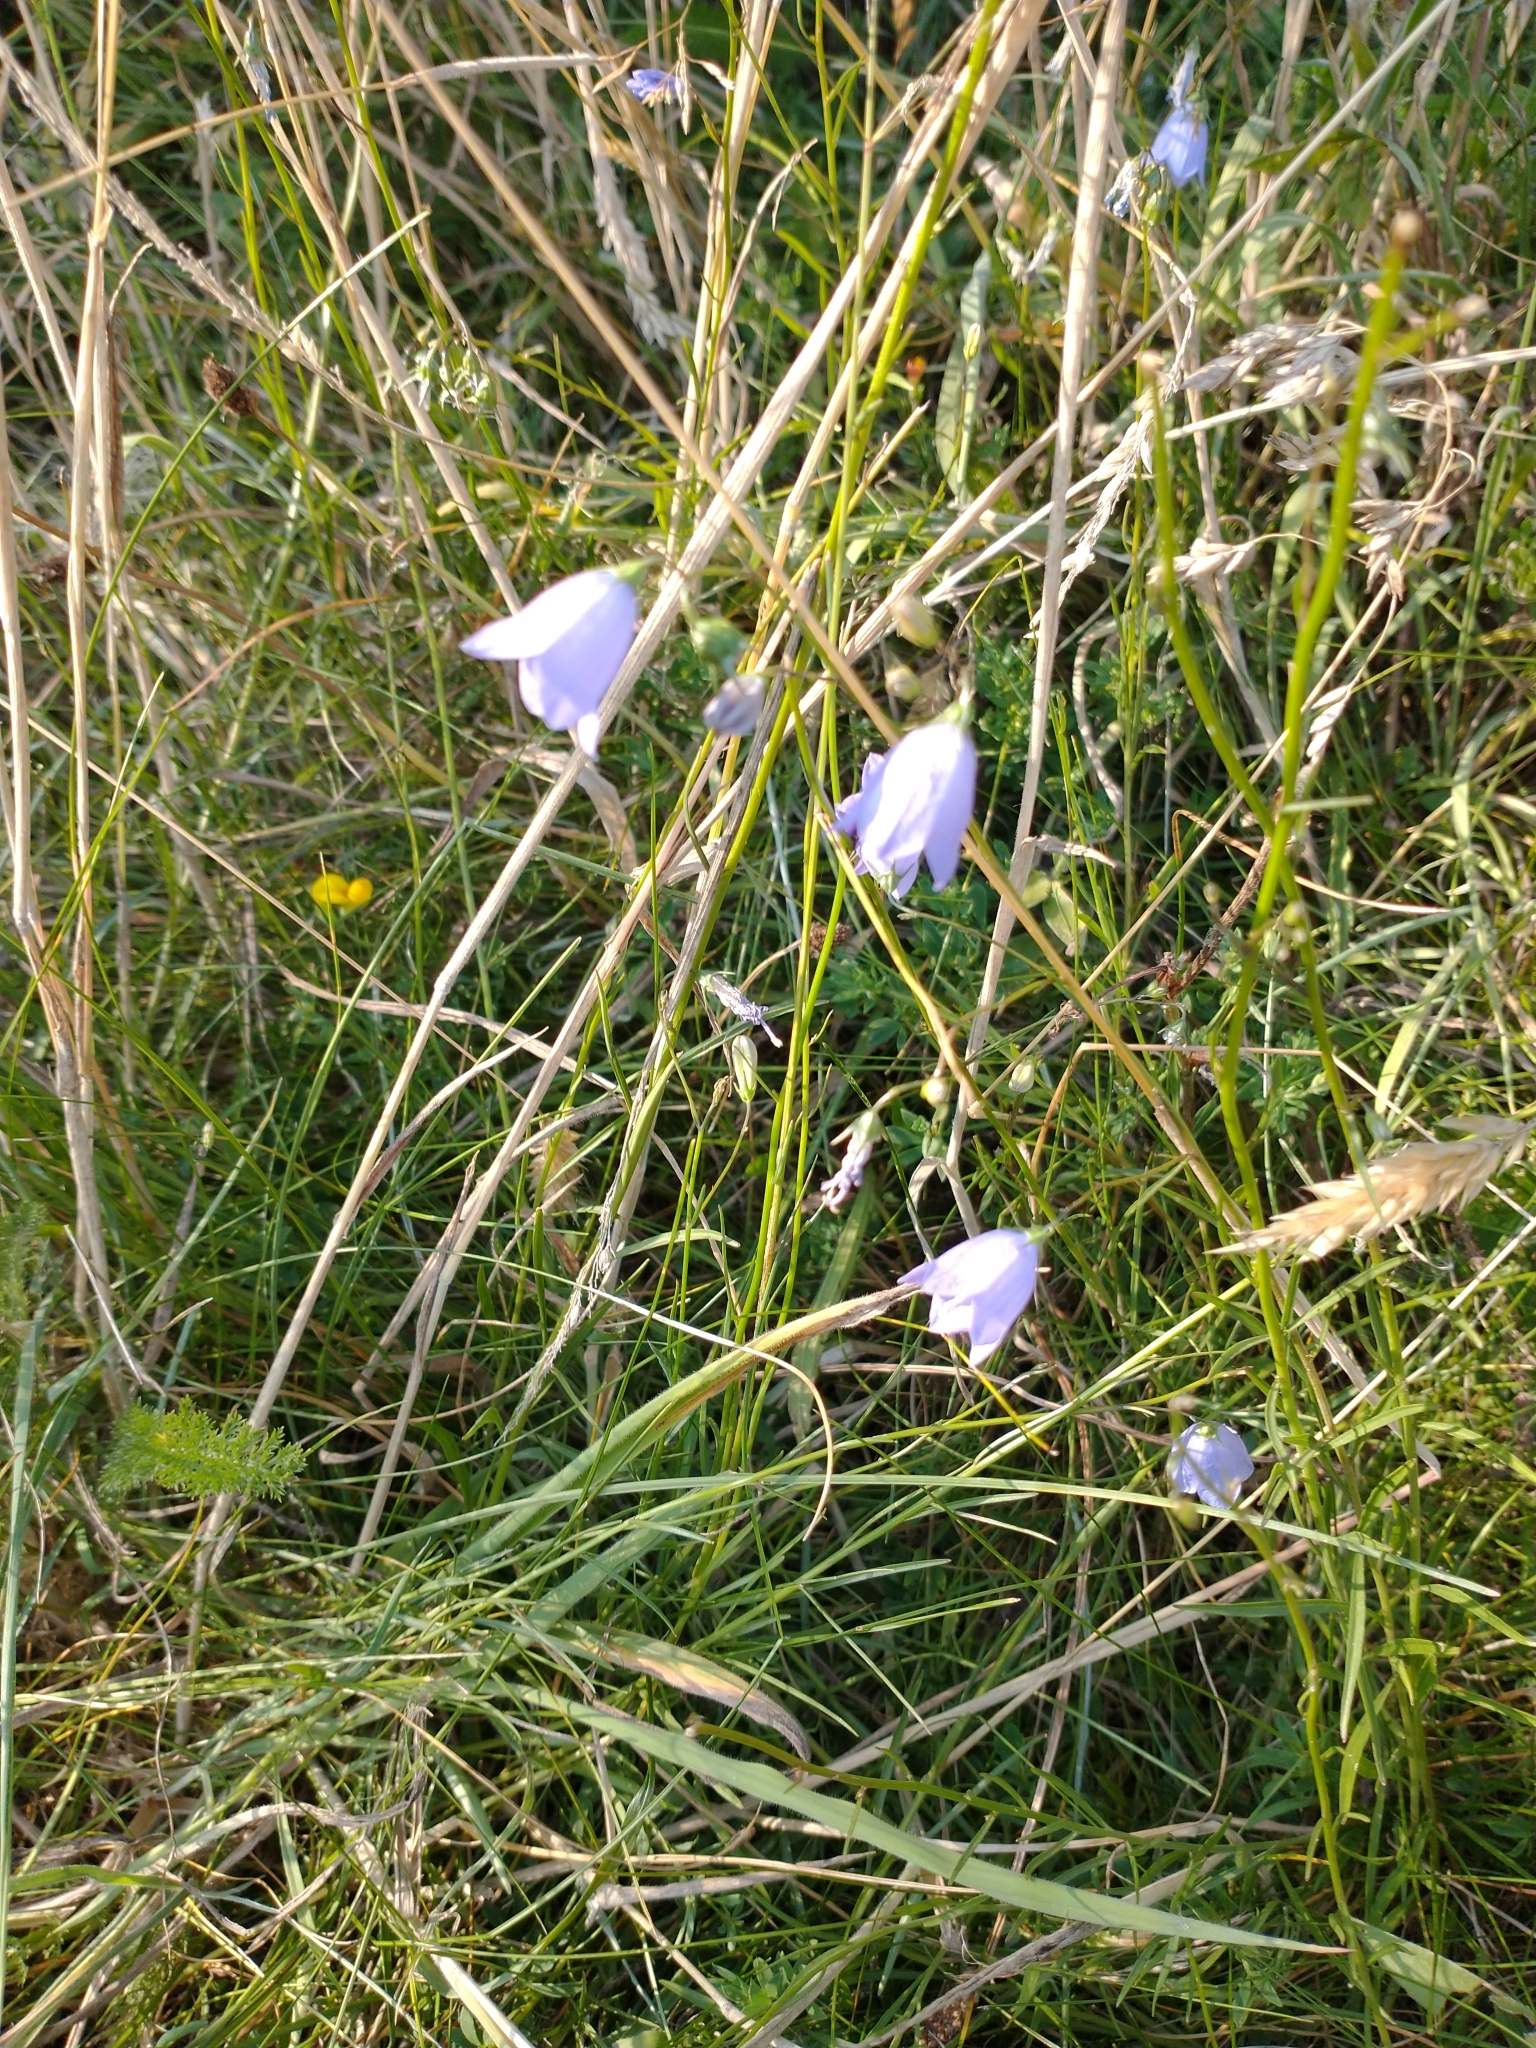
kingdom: Plantae
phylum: Tracheophyta
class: Magnoliopsida
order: Asterales
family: Campanulaceae
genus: Campanula
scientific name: Campanula rotundifolia
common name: Harebell
